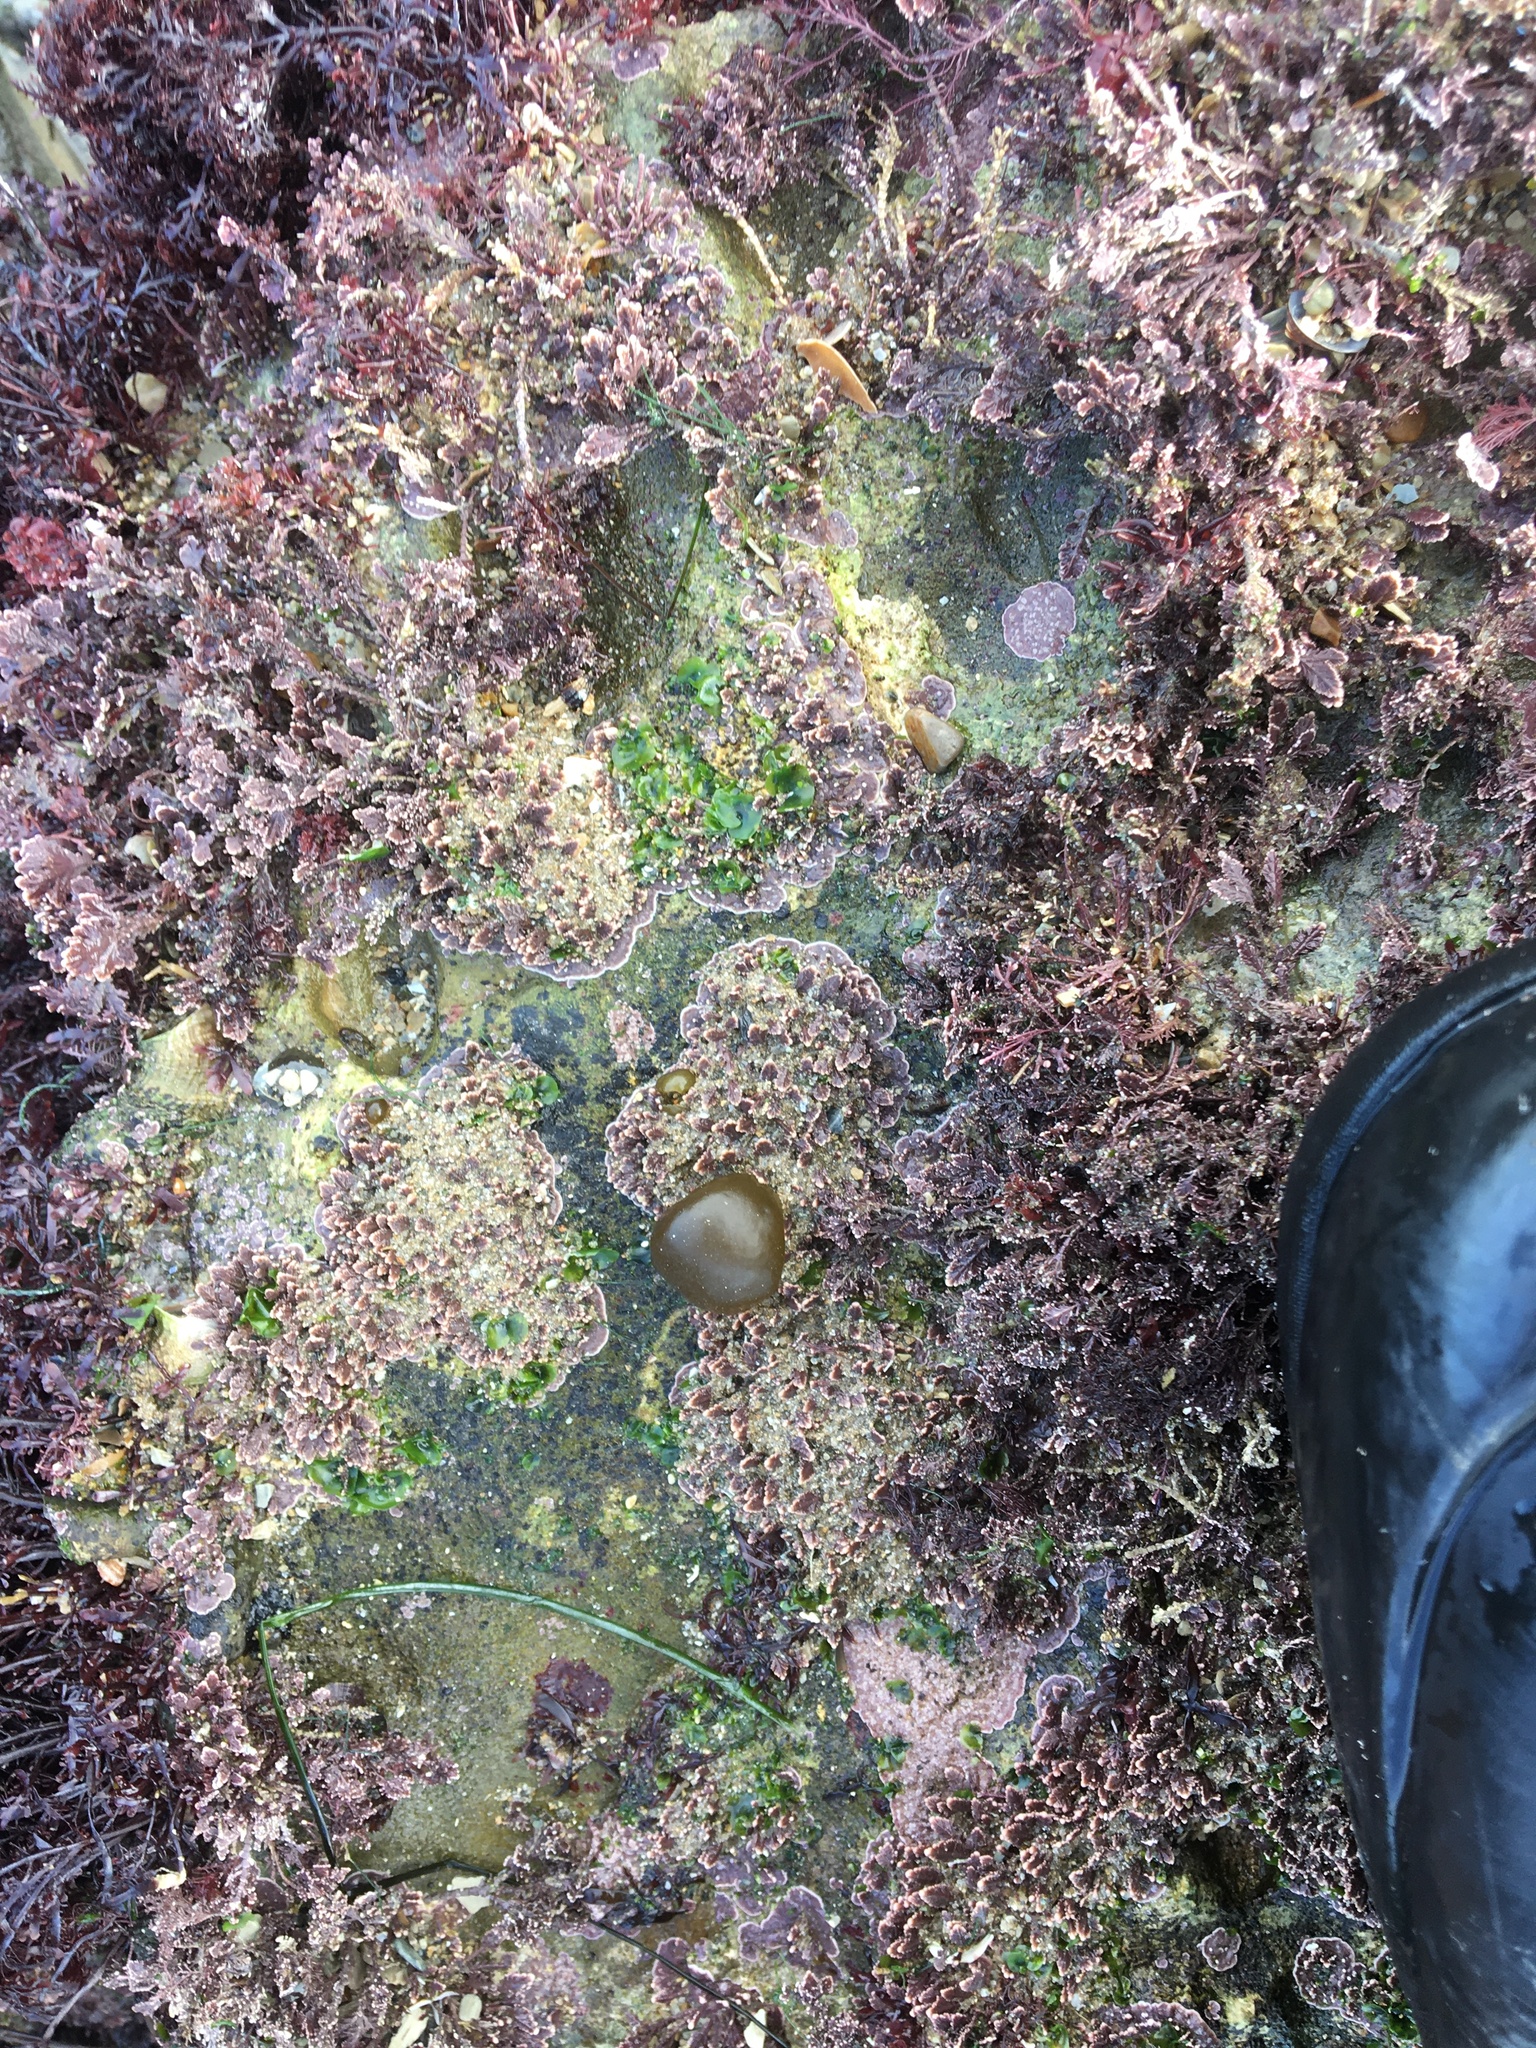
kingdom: Chromista
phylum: Ochrophyta
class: Phaeophyceae
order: Scytosiphonales
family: Scytosiphonaceae
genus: Colpomenia
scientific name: Colpomenia peregrina
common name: Oyster thief
